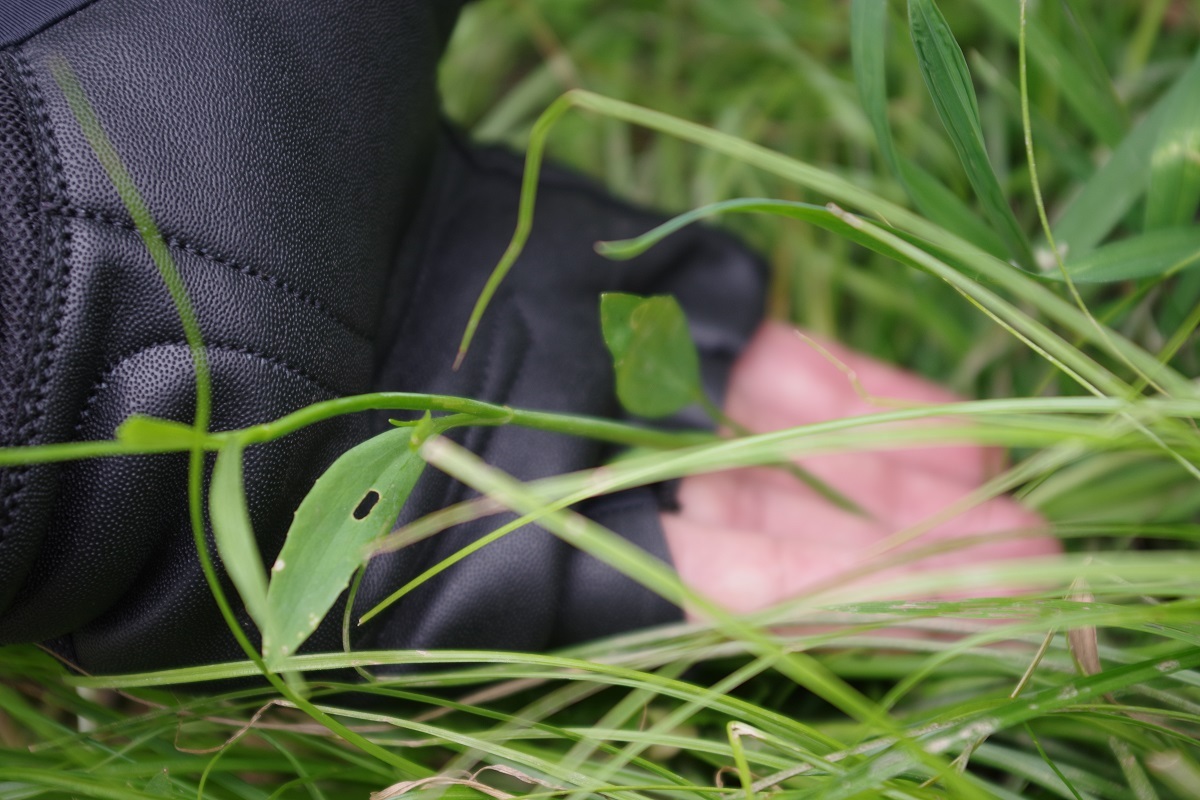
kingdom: Plantae
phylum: Tracheophyta
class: Magnoliopsida
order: Ranunculales
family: Ranunculaceae
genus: Ranunculus
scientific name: Ranunculus flammula
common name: Lesser spearwort
